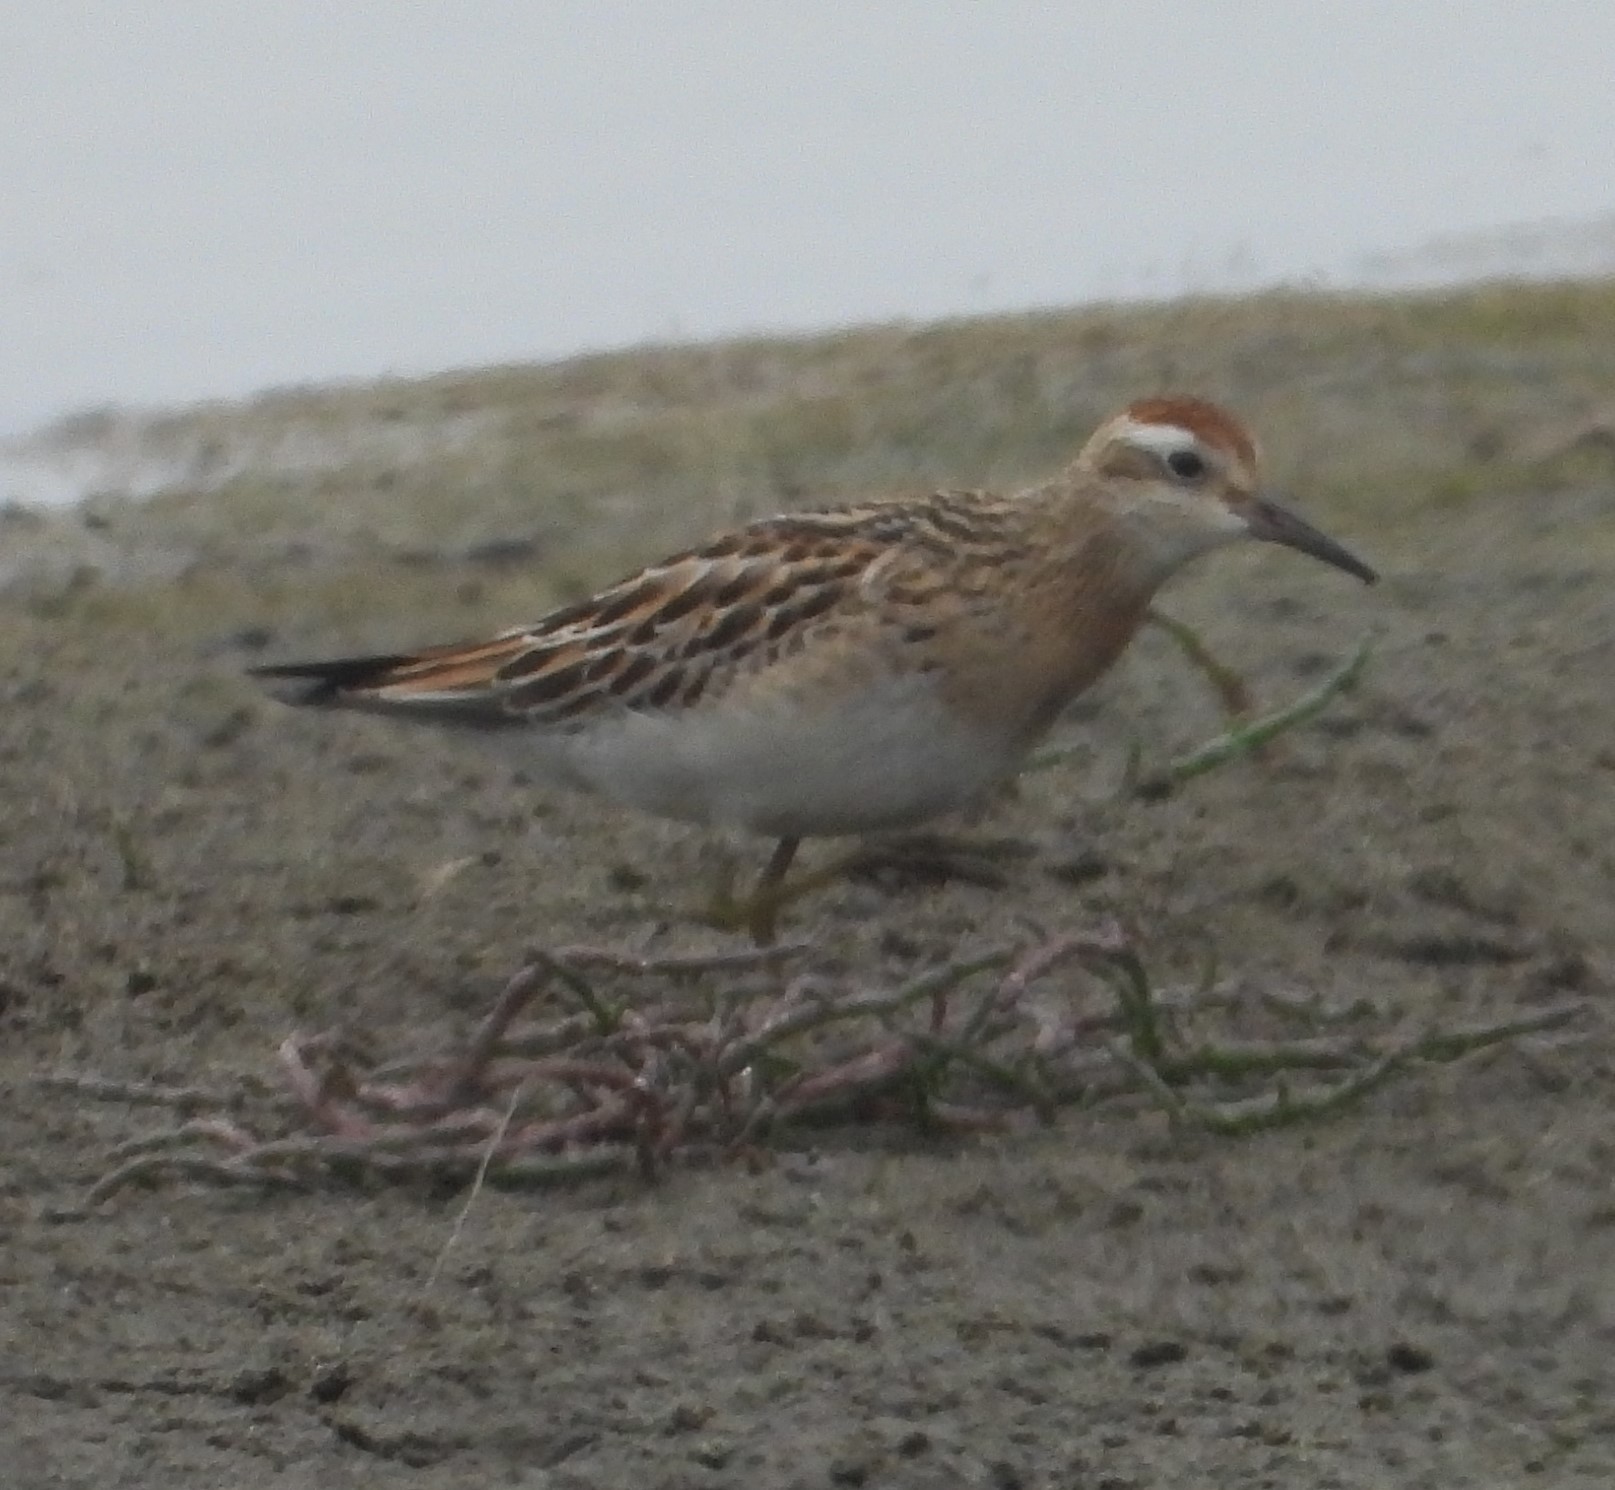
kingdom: Animalia
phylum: Chordata
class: Aves
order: Charadriiformes
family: Scolopacidae
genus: Calidris
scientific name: Calidris acuminata
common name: Sharp-tailed sandpiper
